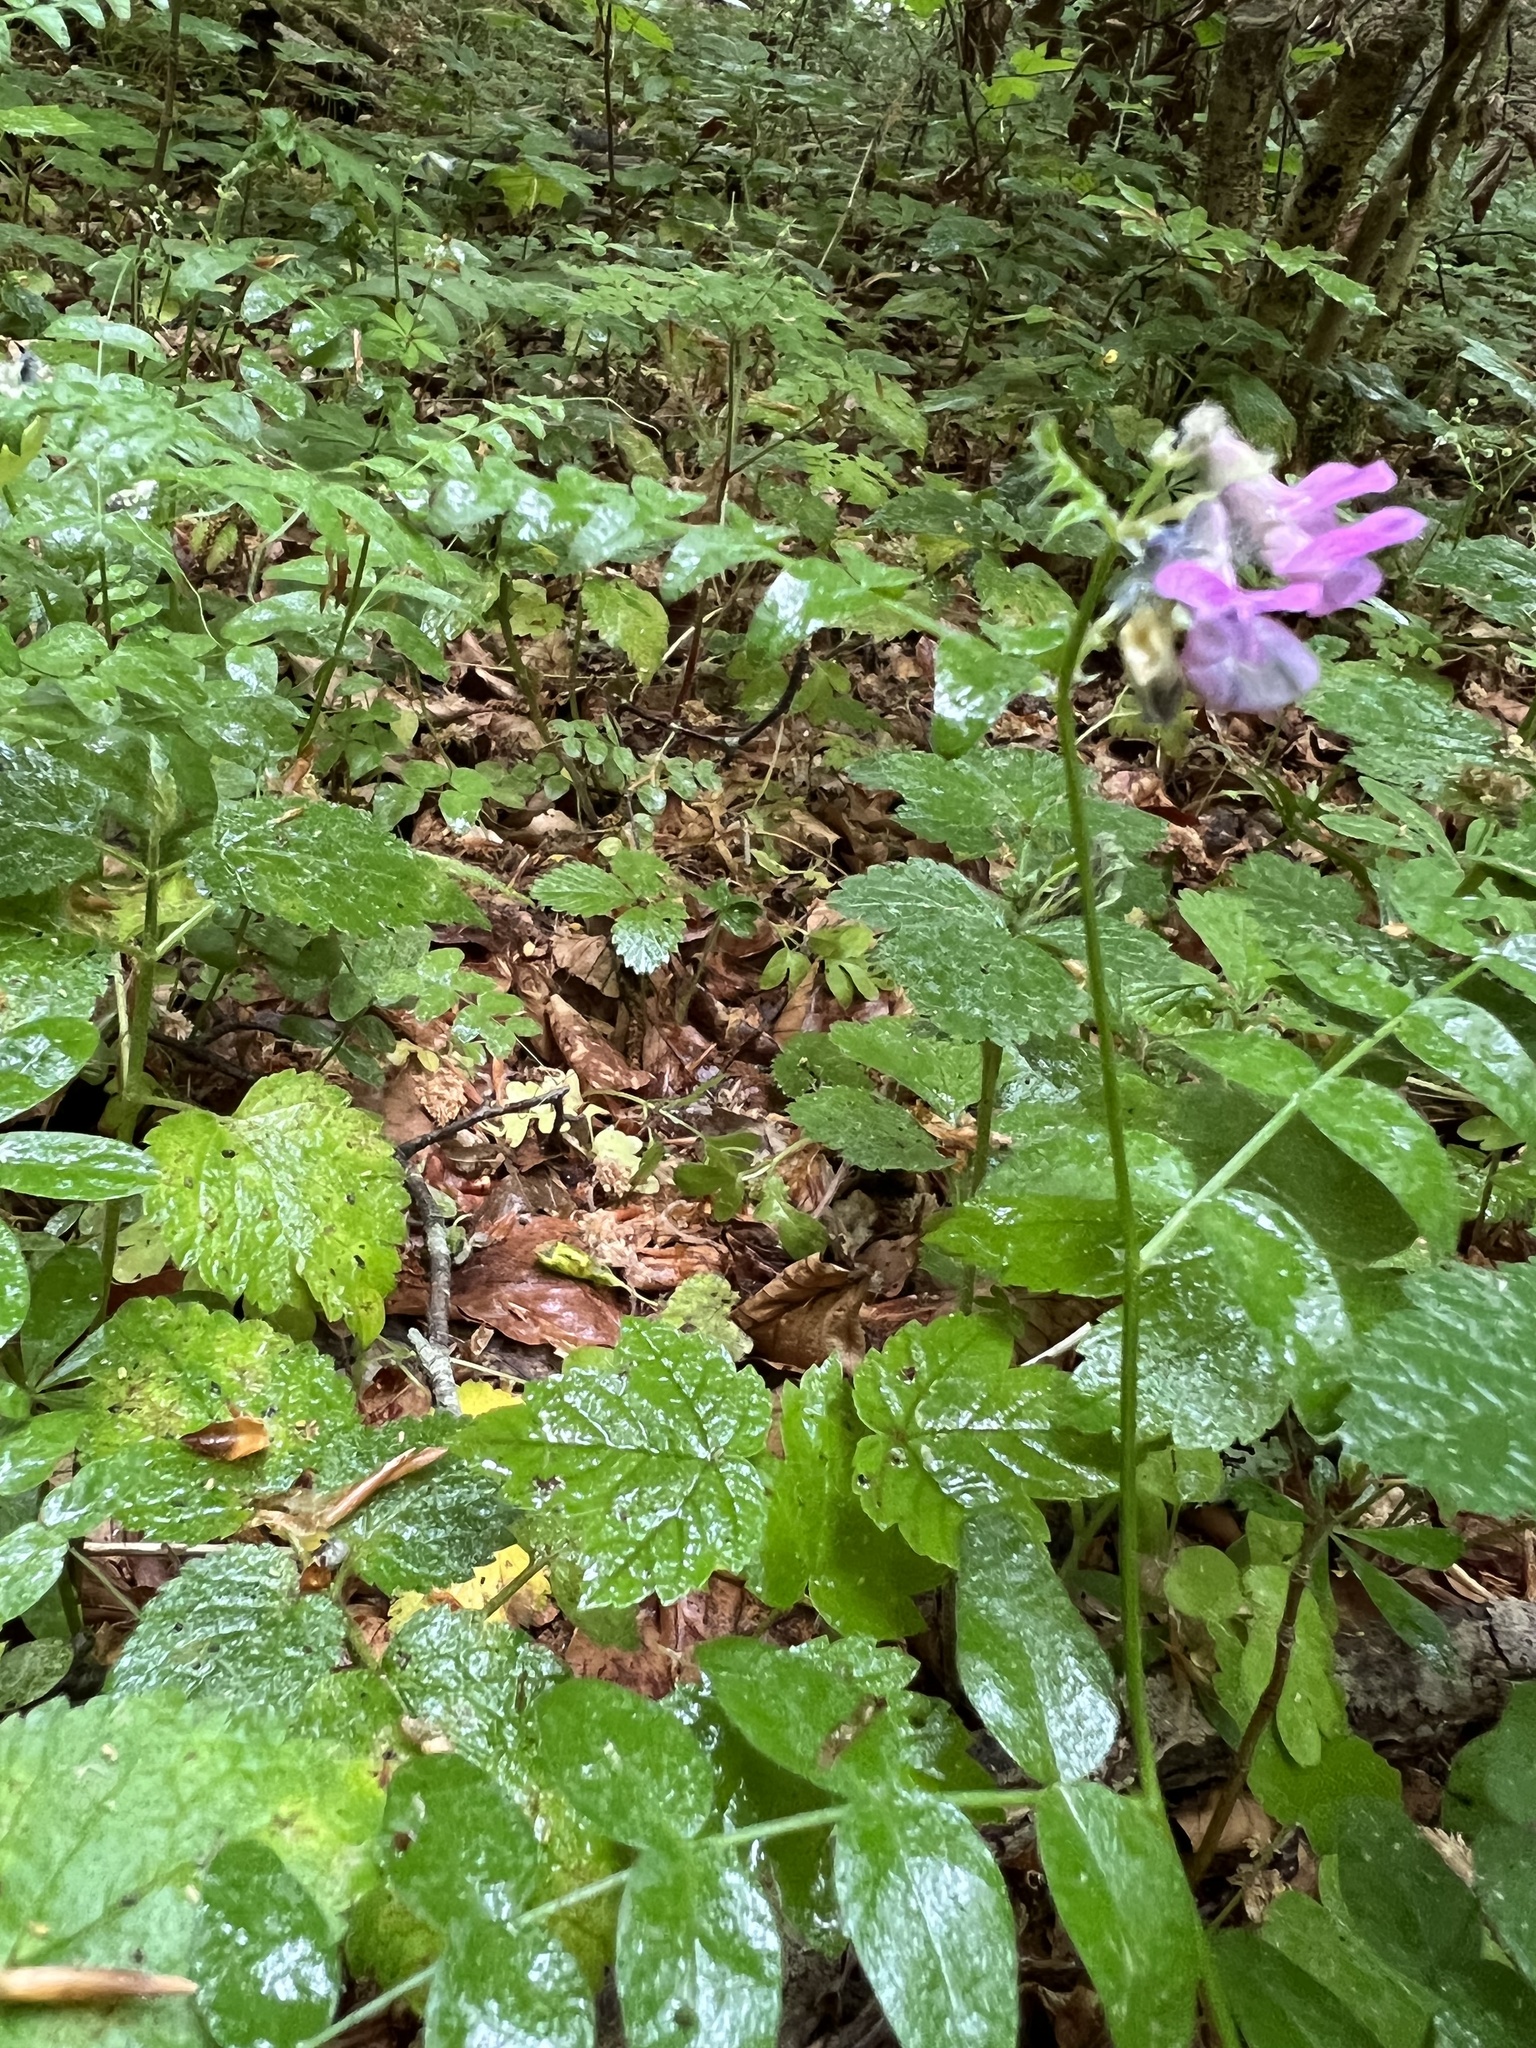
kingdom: Plantae
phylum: Tracheophyta
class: Magnoliopsida
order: Fabales
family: Fabaceae
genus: Vicia
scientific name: Vicia sepium
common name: Bush vetch
